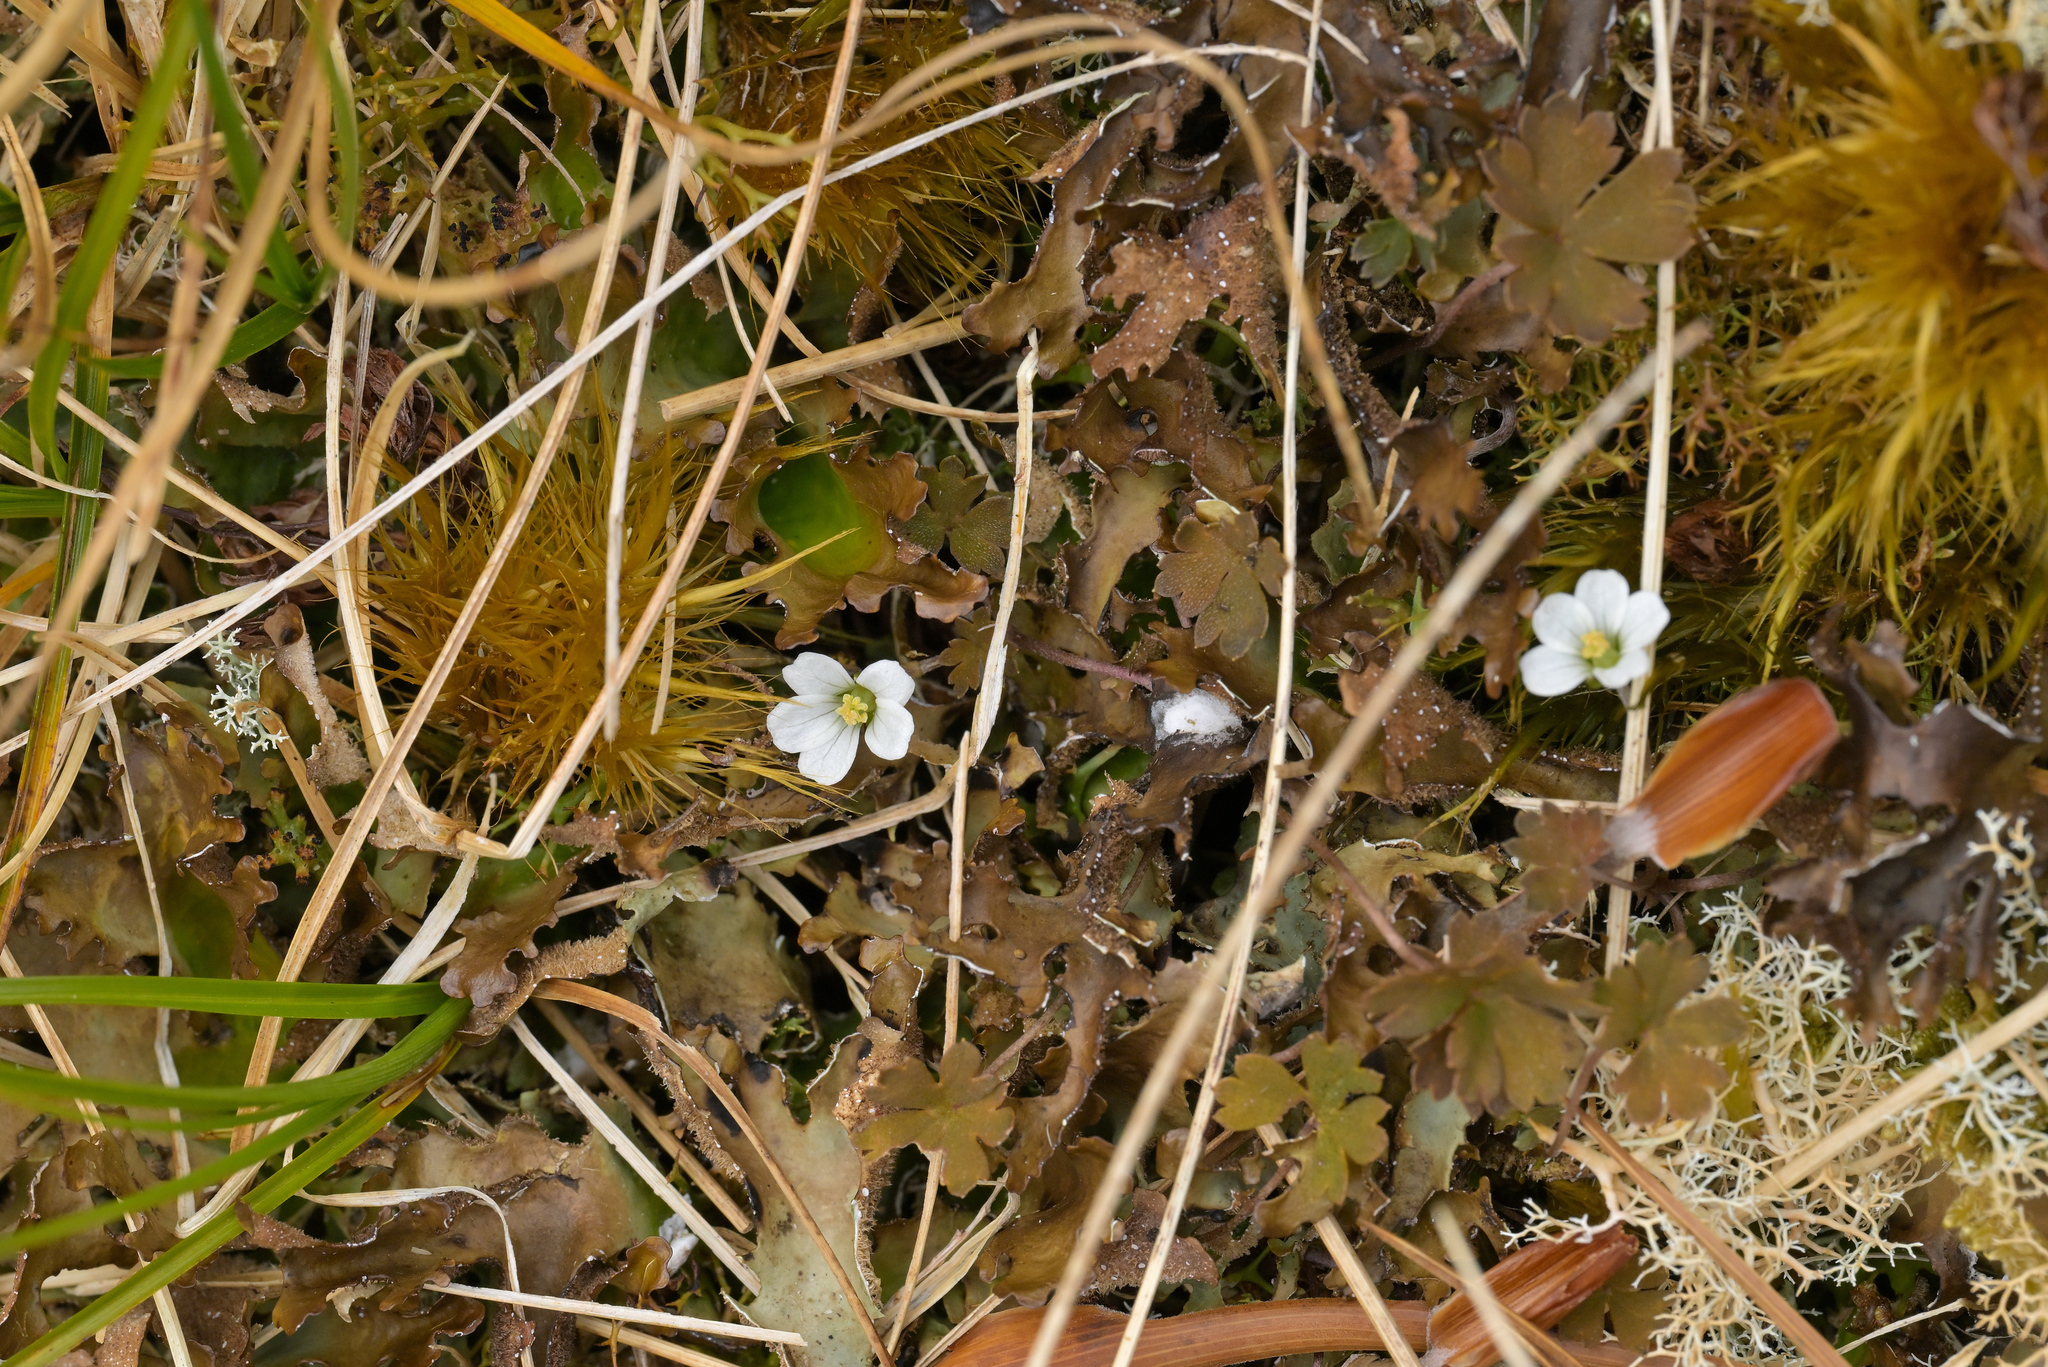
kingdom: Plantae
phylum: Tracheophyta
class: Magnoliopsida
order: Geraniales
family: Geraniaceae
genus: Geranium
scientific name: Geranium
